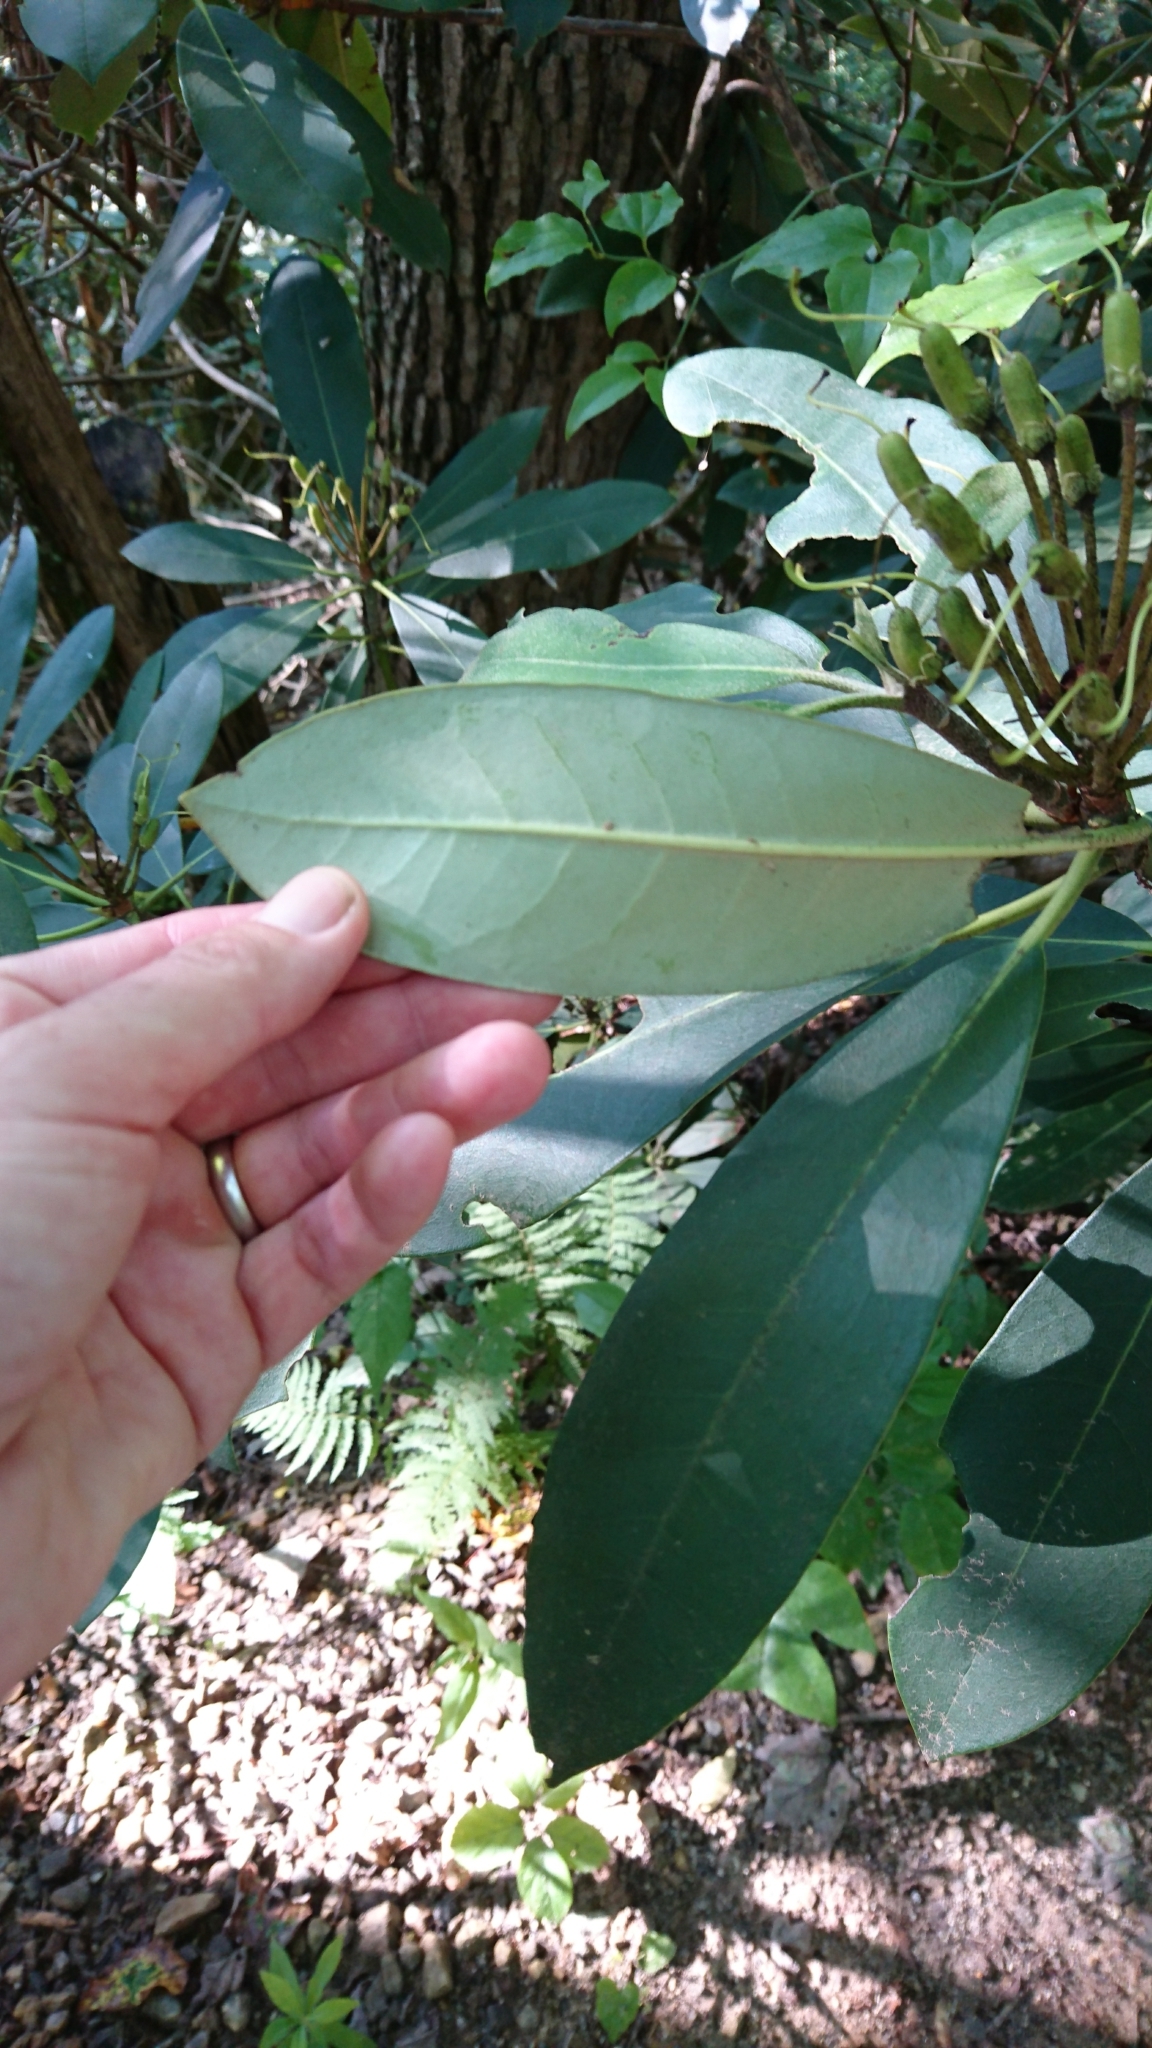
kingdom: Plantae
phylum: Tracheophyta
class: Magnoliopsida
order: Ericales
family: Ericaceae
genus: Rhododendron
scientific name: Rhododendron maximum
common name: Great rhododendron
